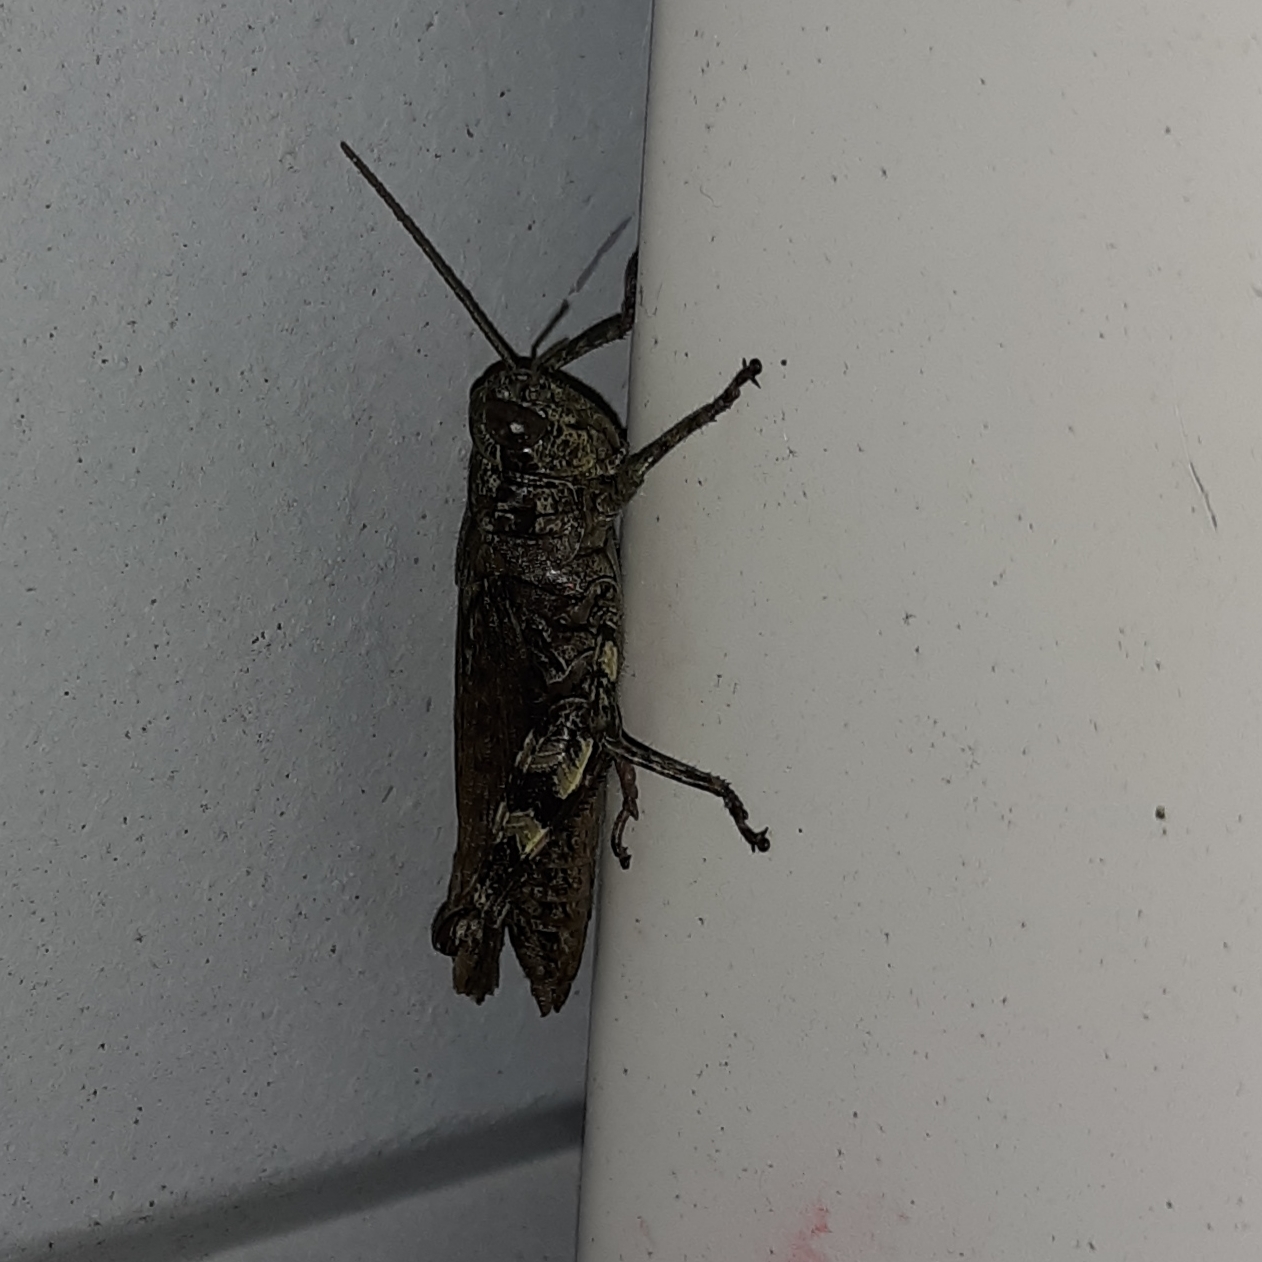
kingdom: Animalia
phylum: Arthropoda
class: Insecta
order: Orthoptera
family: Acrididae
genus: Melanoplus
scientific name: Melanoplus punctulatus
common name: Pine-tree spur-throat grasshopper
